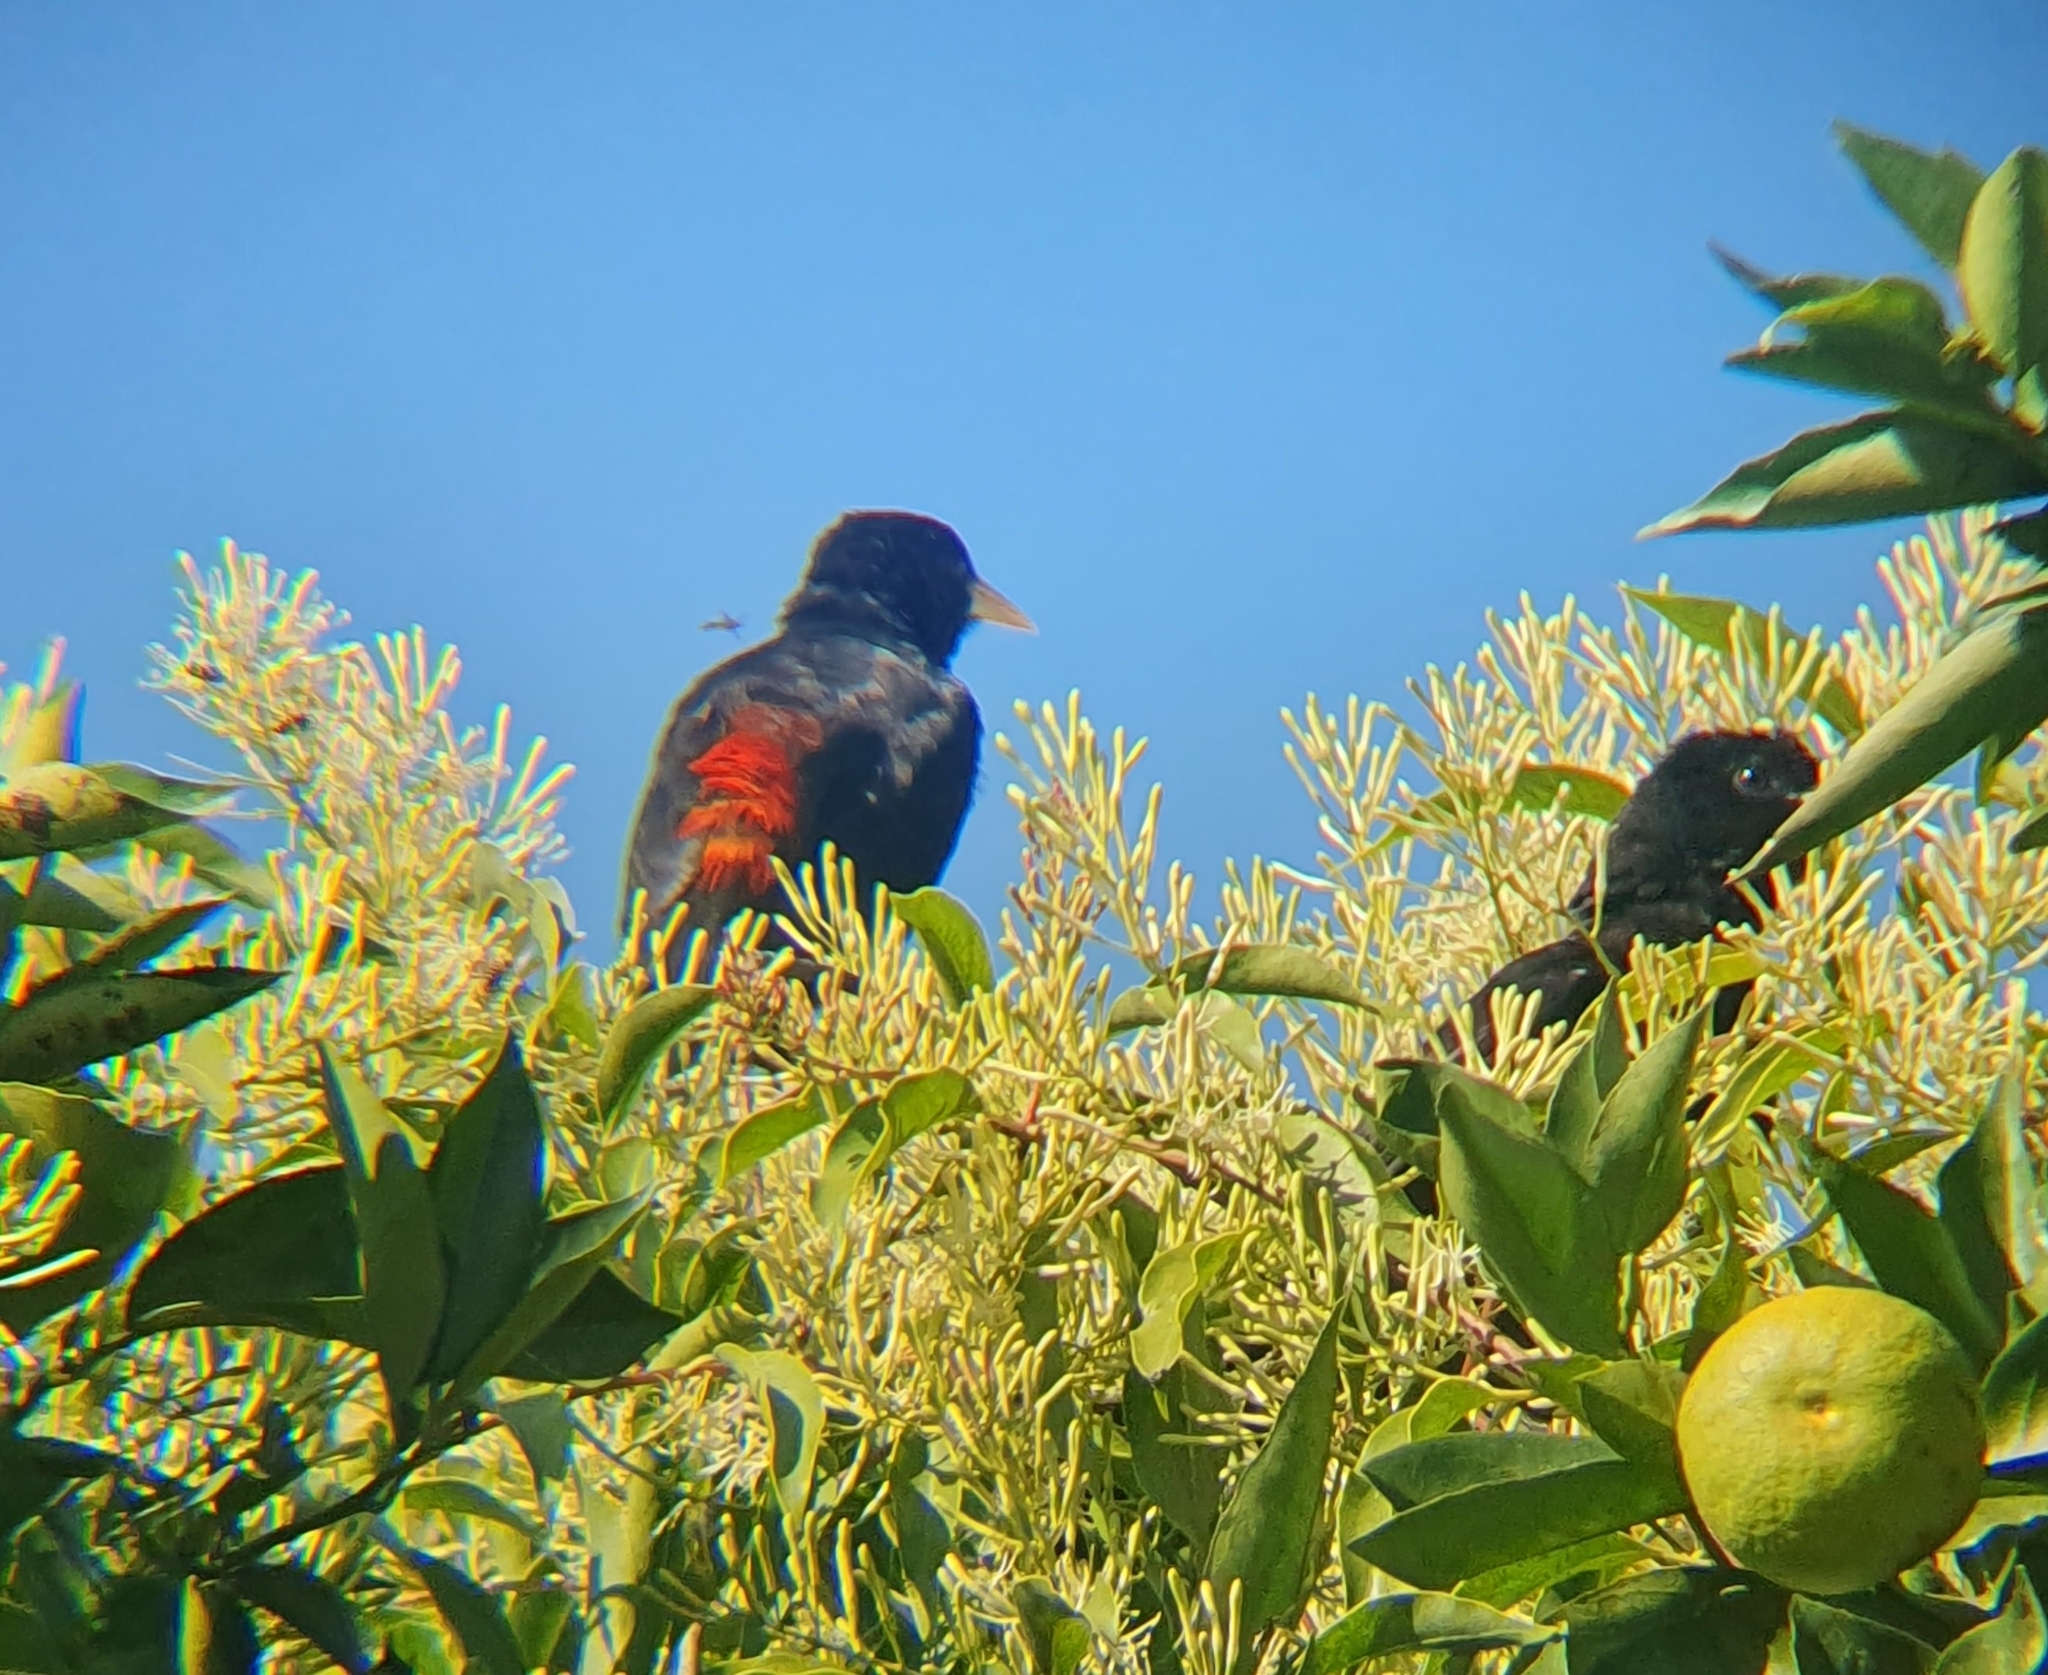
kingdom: Animalia
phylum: Chordata
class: Aves
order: Passeriformes
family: Icteridae
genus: Cacicus
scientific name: Cacicus haemorrhous
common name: Red-rumped cacique
